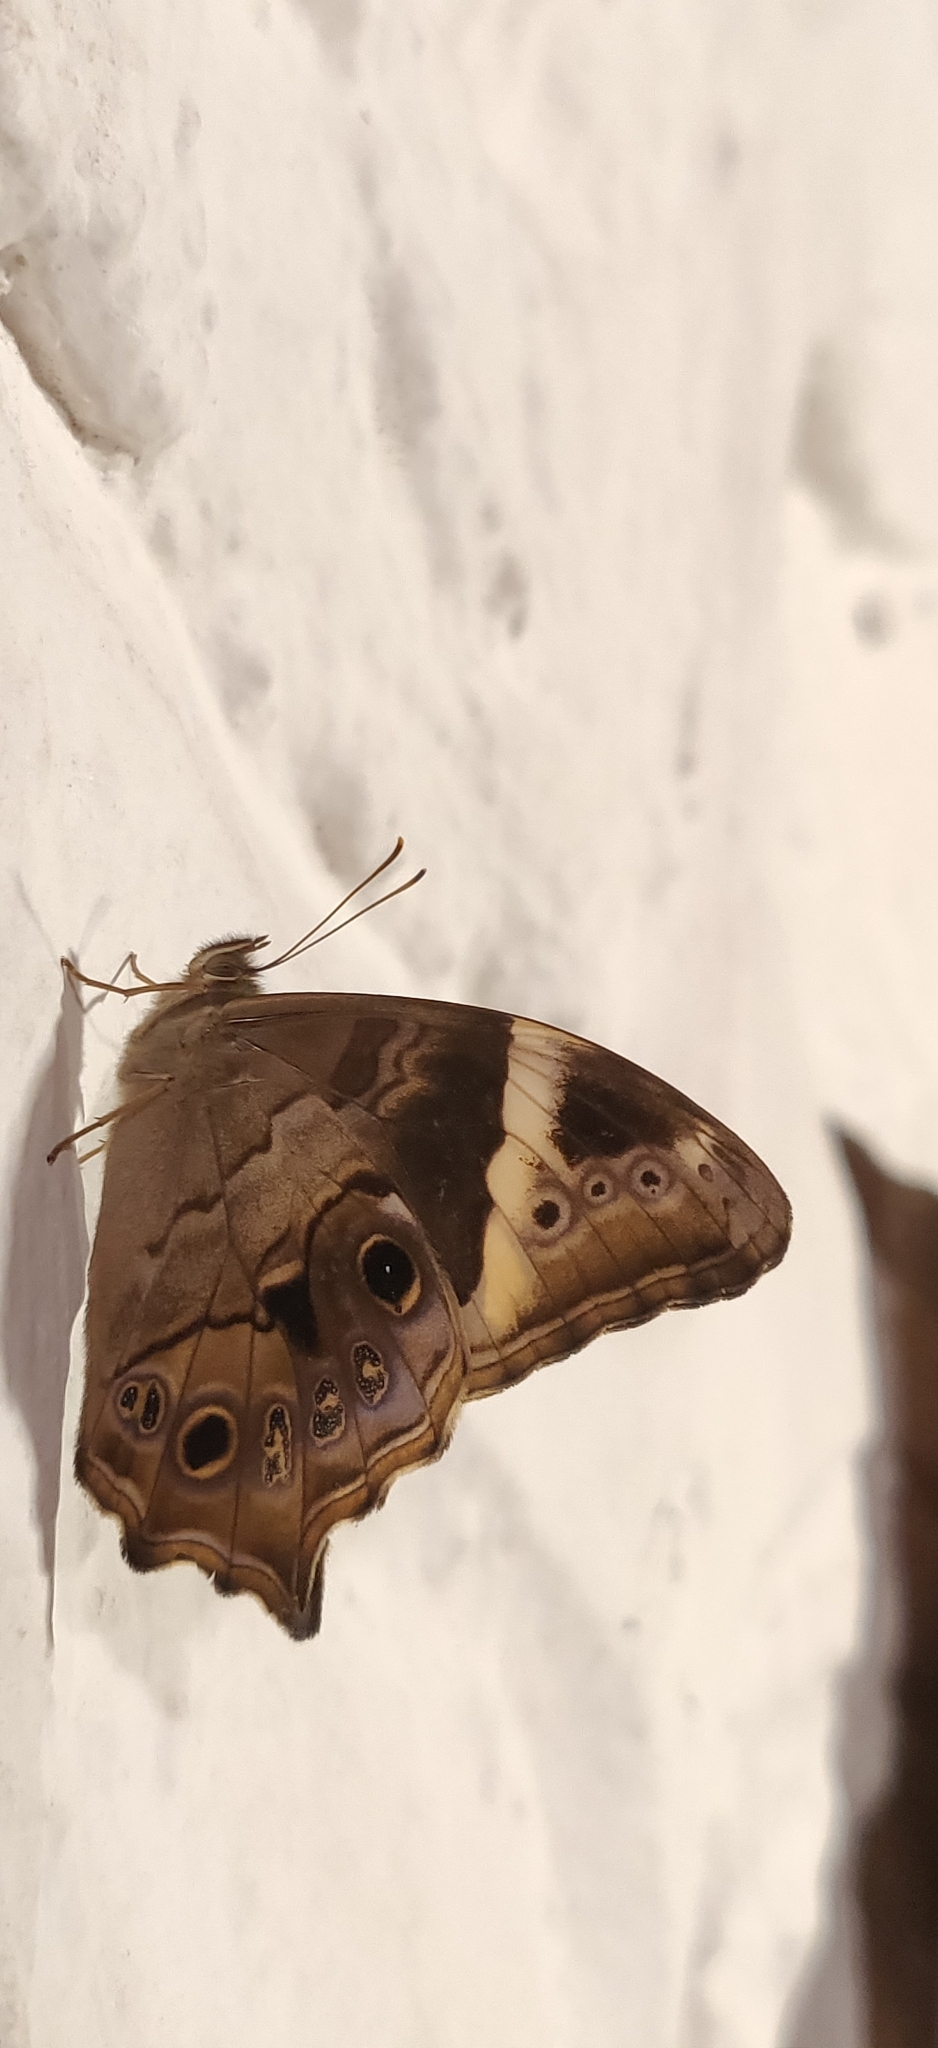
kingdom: Animalia
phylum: Arthropoda
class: Insecta
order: Lepidoptera
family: Nymphalidae
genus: Lethe
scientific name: Lethe drypetis
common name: Tamil treebrown
